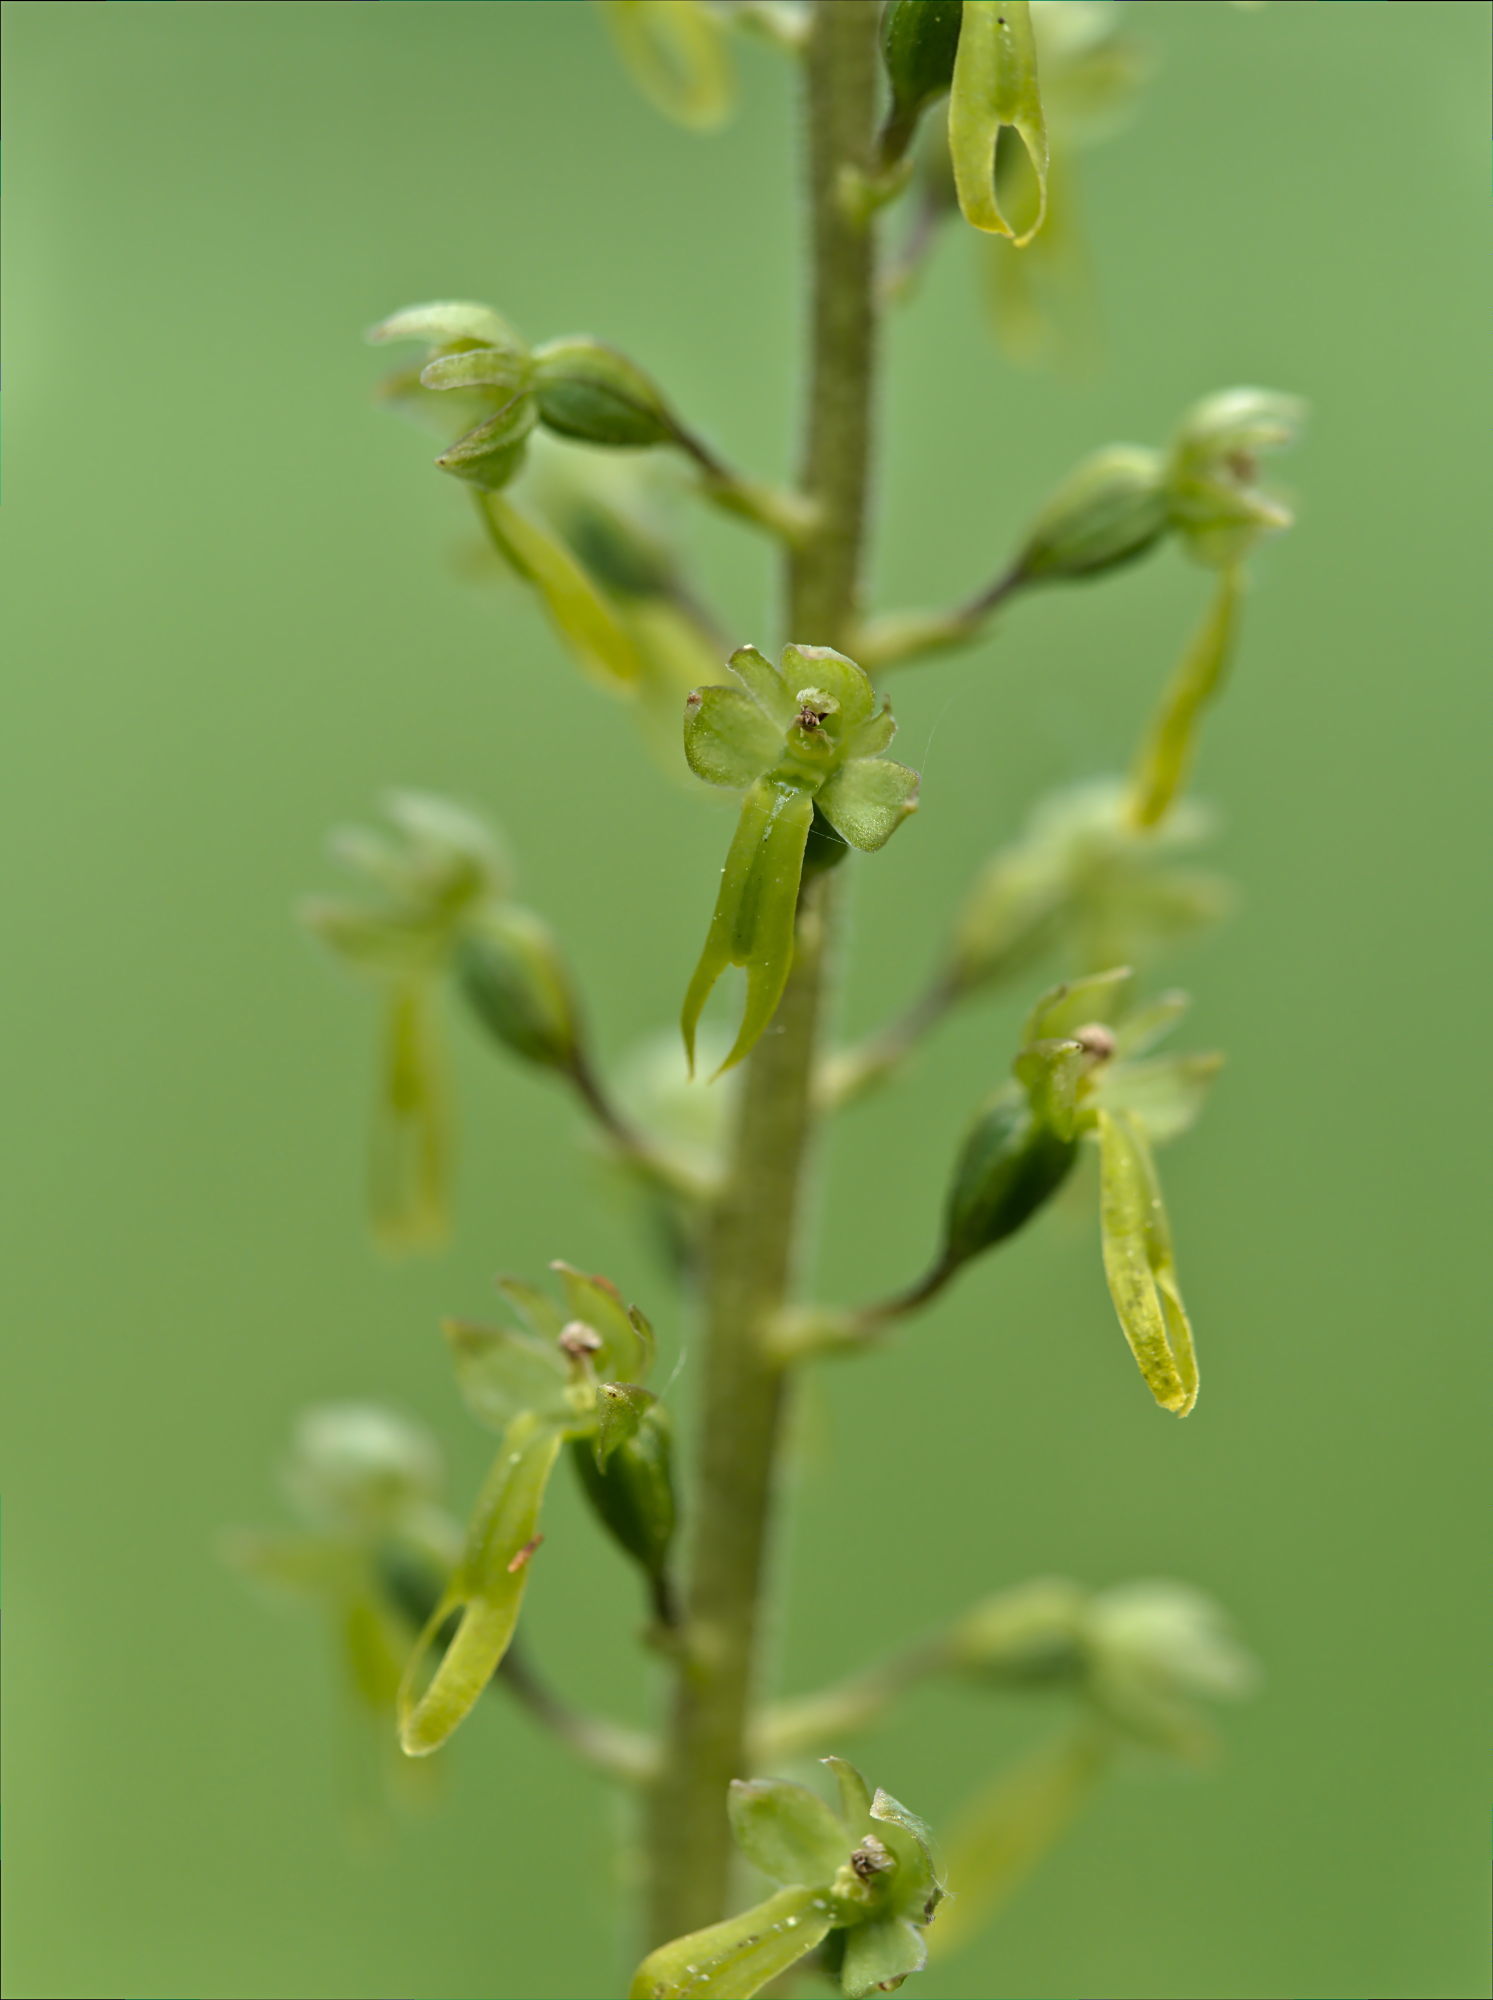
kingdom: Plantae
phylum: Tracheophyta
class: Liliopsida
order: Asparagales
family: Orchidaceae
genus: Neottia
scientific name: Neottia ovata
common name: Common twayblade
